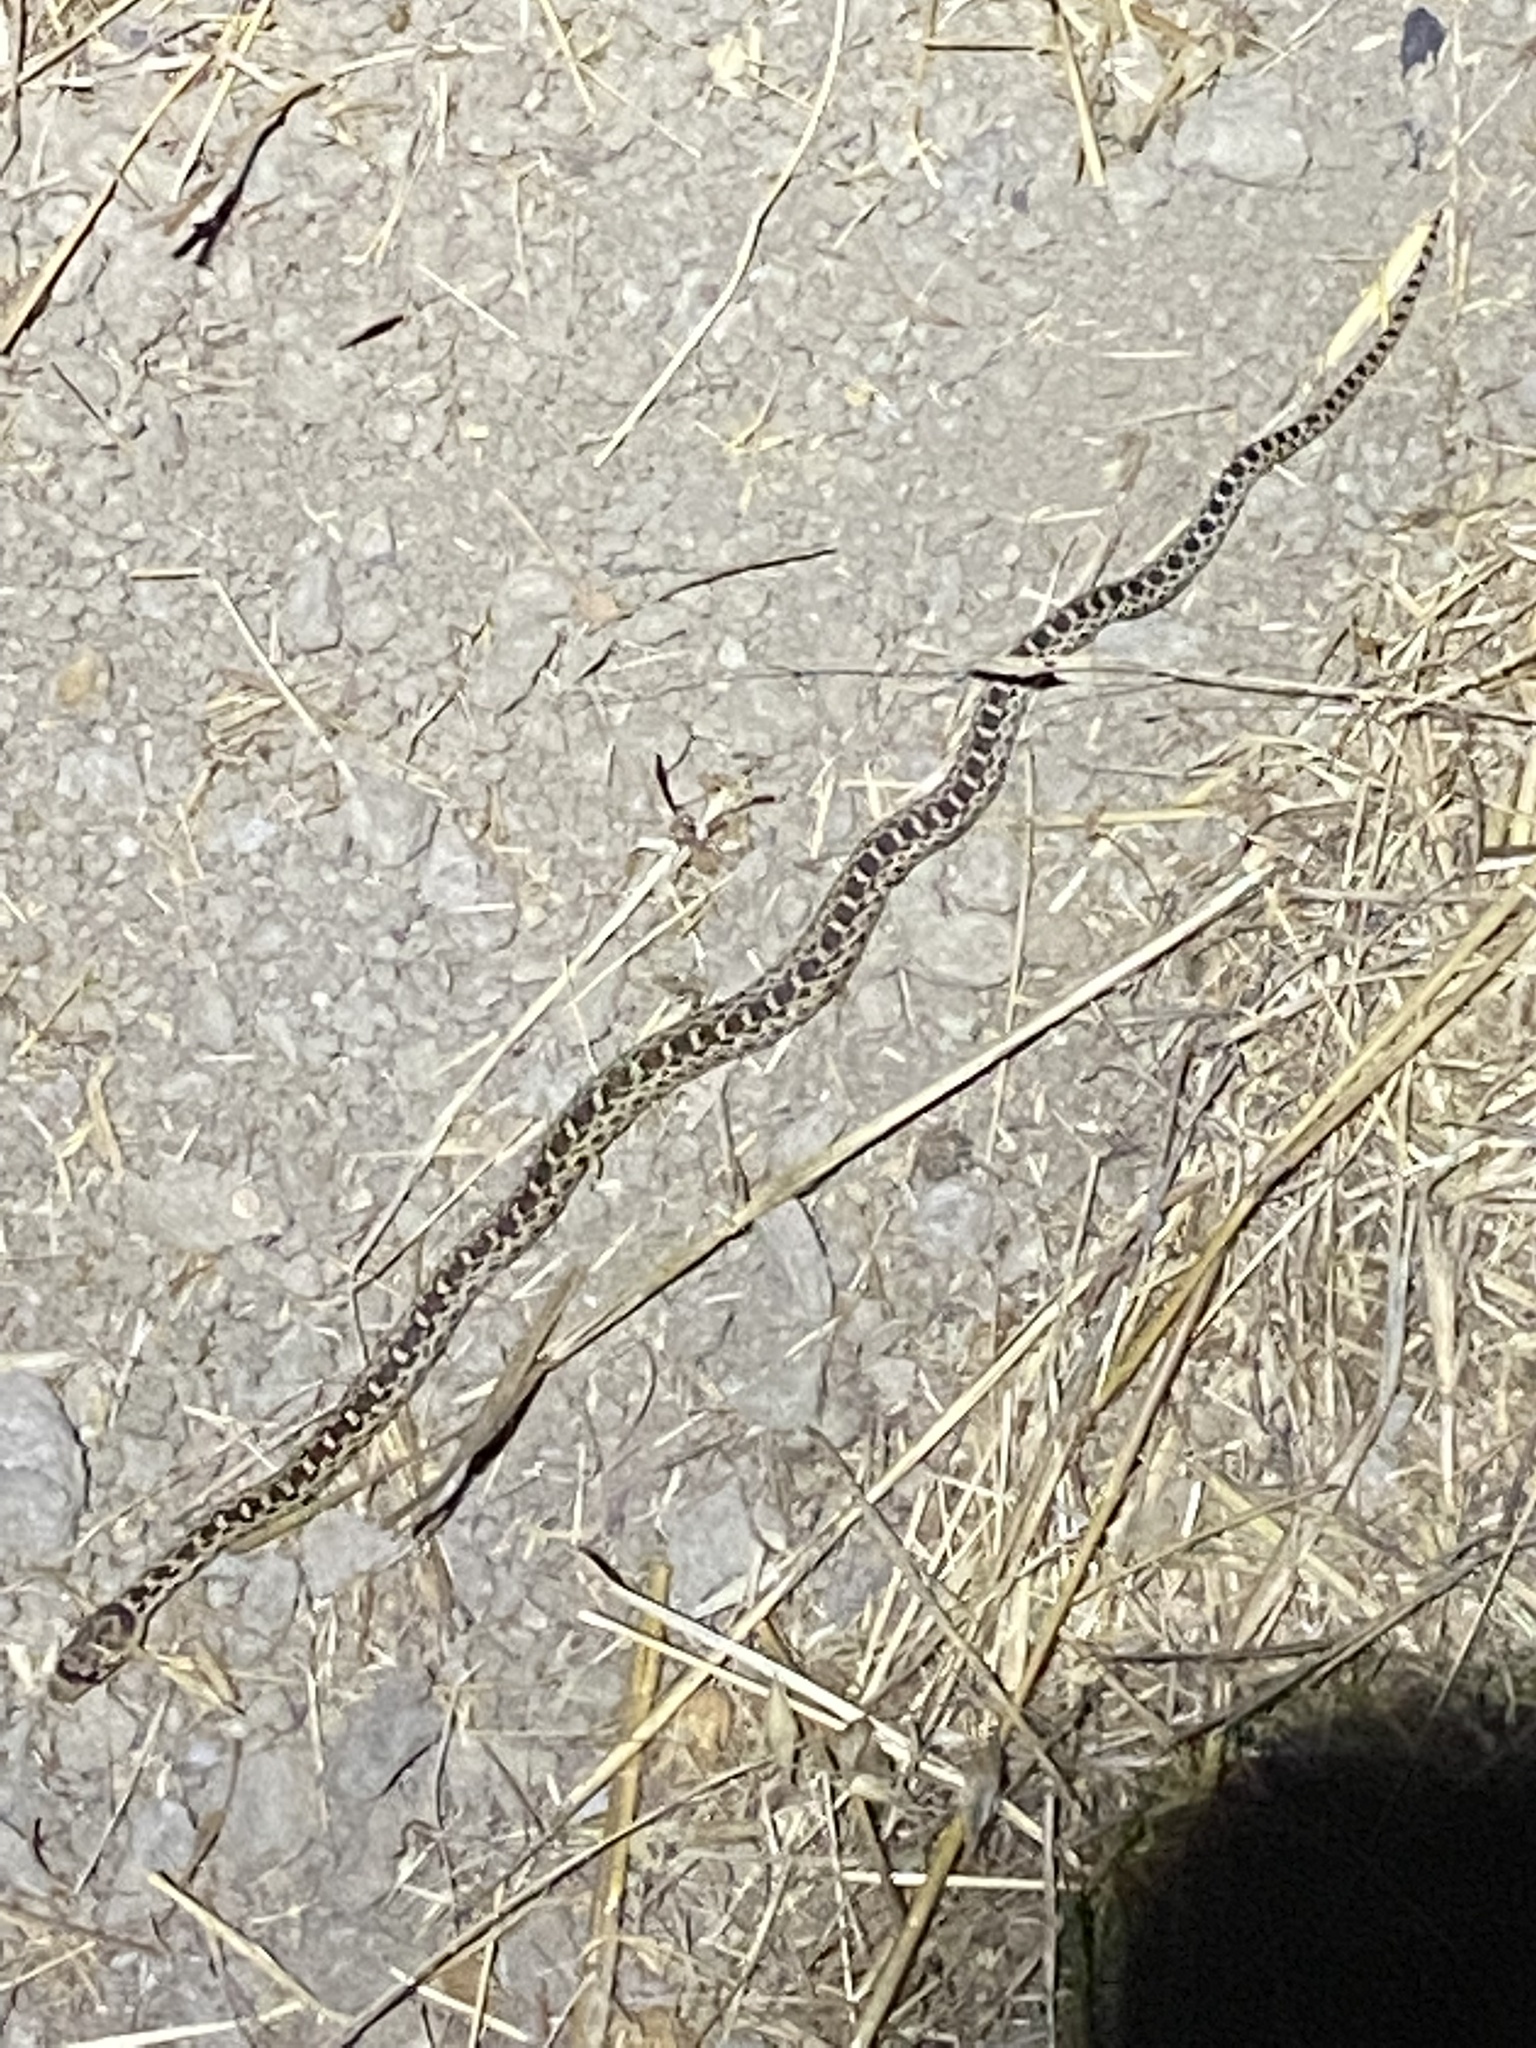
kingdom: Animalia
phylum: Chordata
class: Squamata
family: Colubridae
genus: Pituophis
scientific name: Pituophis catenifer
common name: Gopher snake
